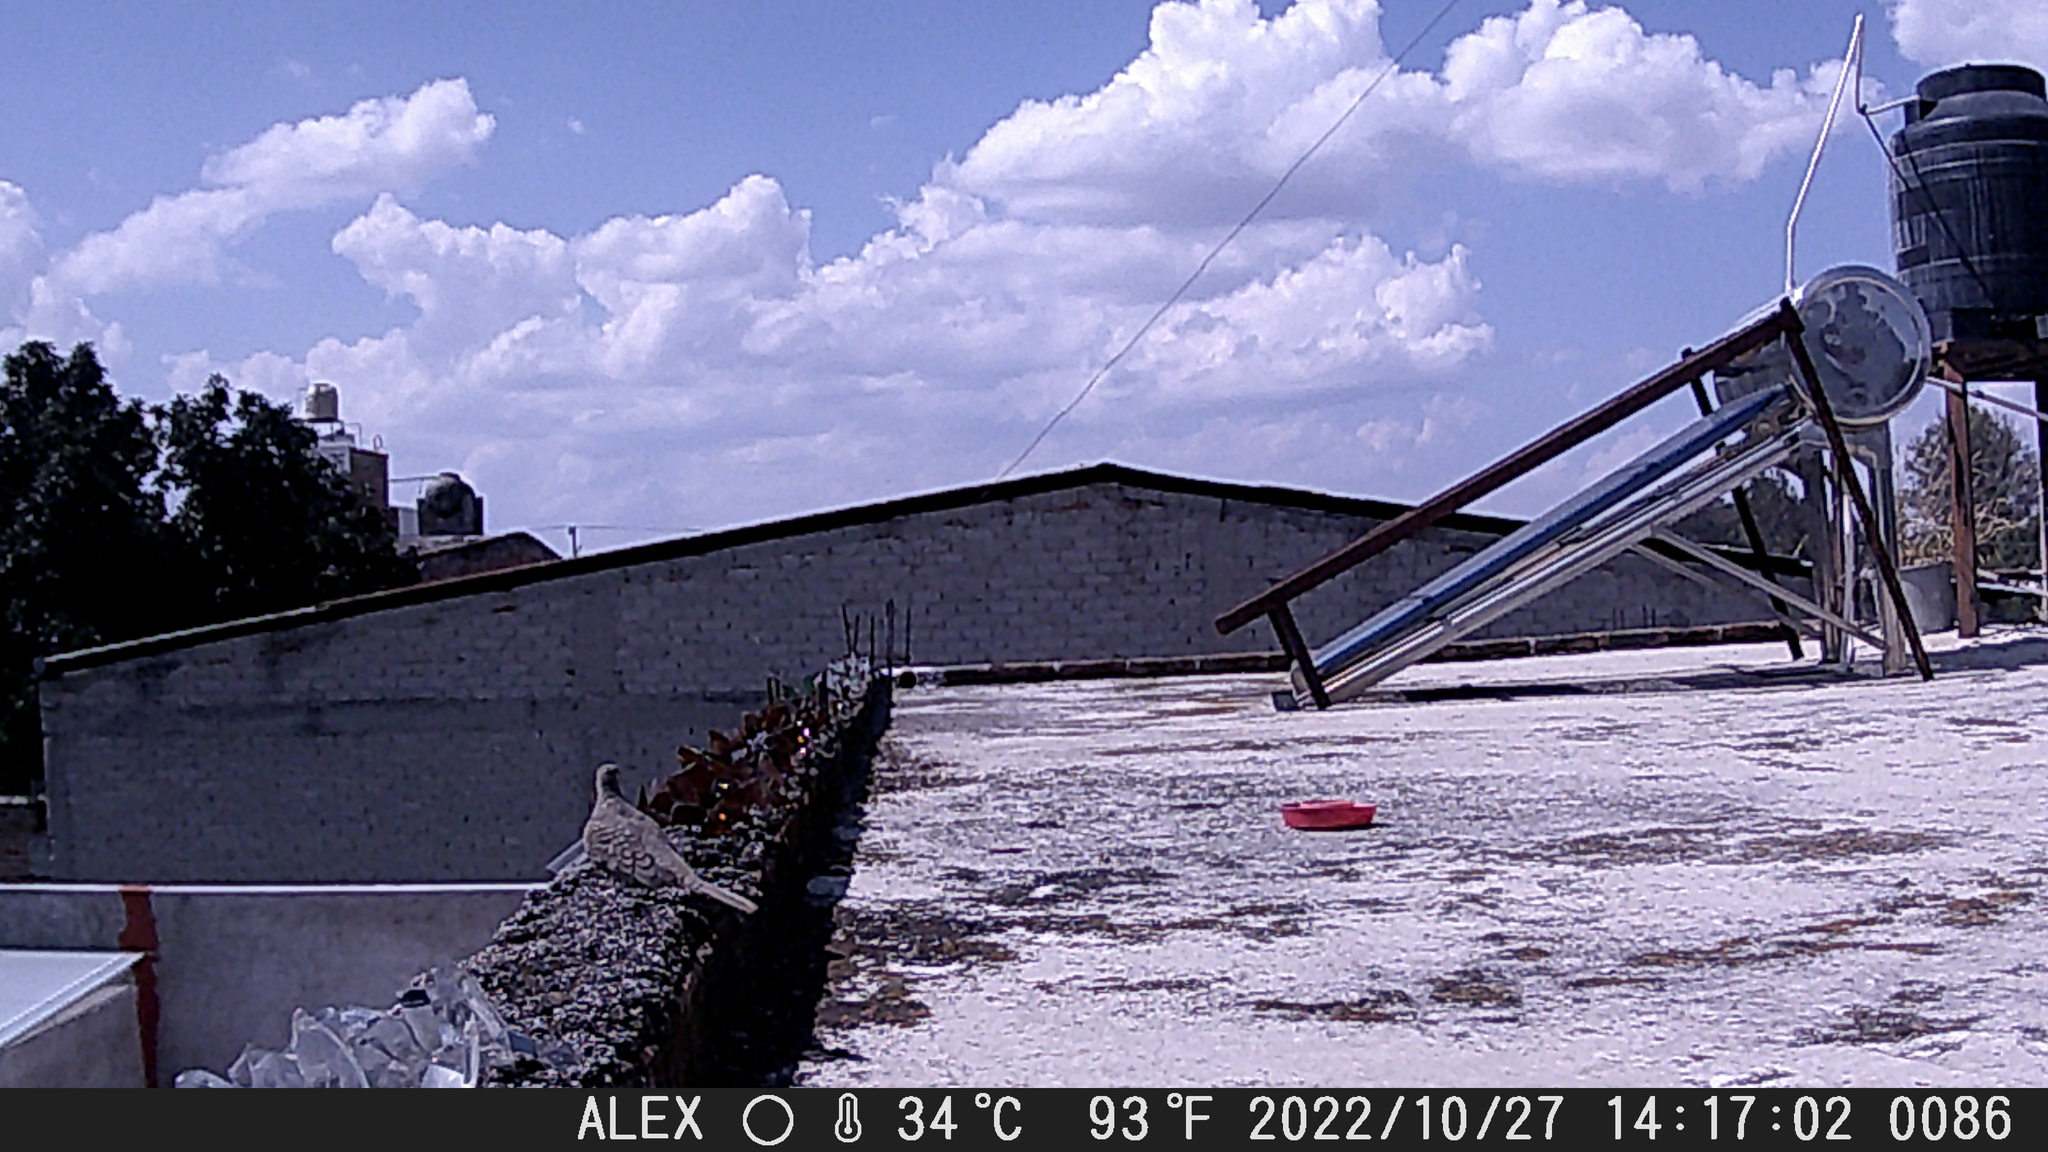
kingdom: Animalia
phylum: Chordata
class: Aves
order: Columbiformes
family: Columbidae
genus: Columbina
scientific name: Columbina inca
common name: Inca dove
